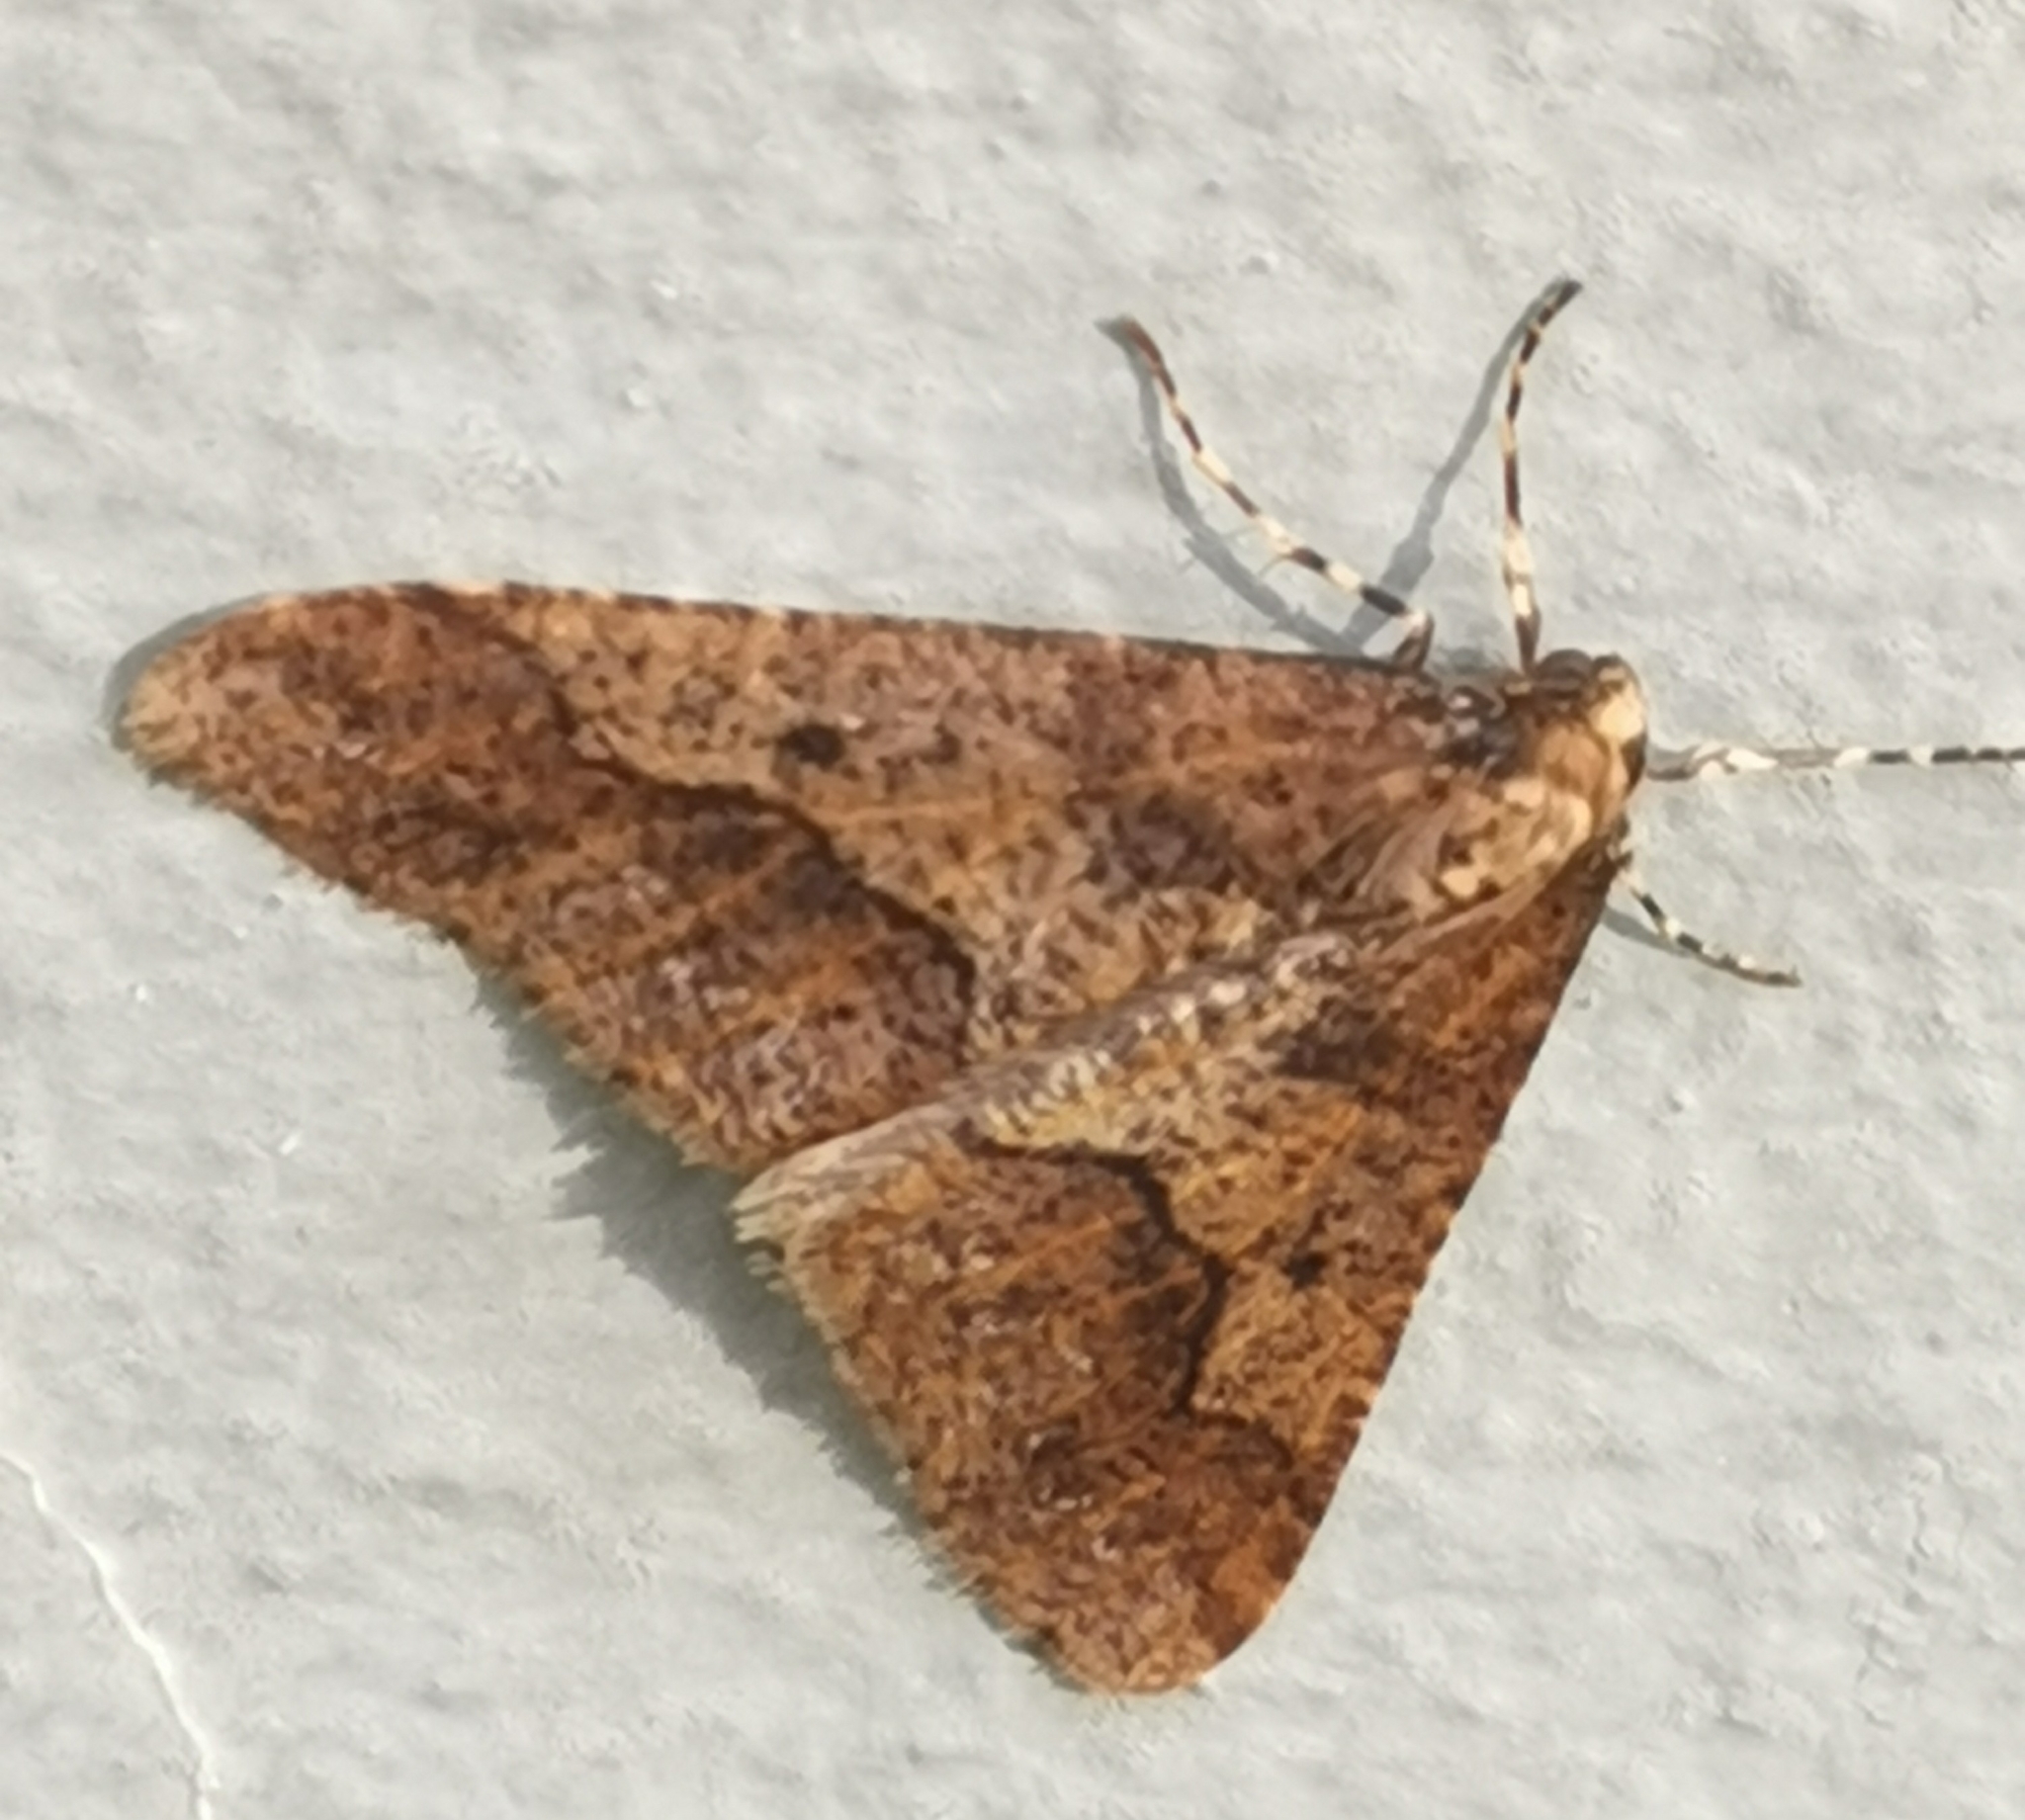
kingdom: Animalia
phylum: Arthropoda
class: Insecta
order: Lepidoptera
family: Geometridae
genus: Erannis
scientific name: Erannis defoliaria
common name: Mottled umber
